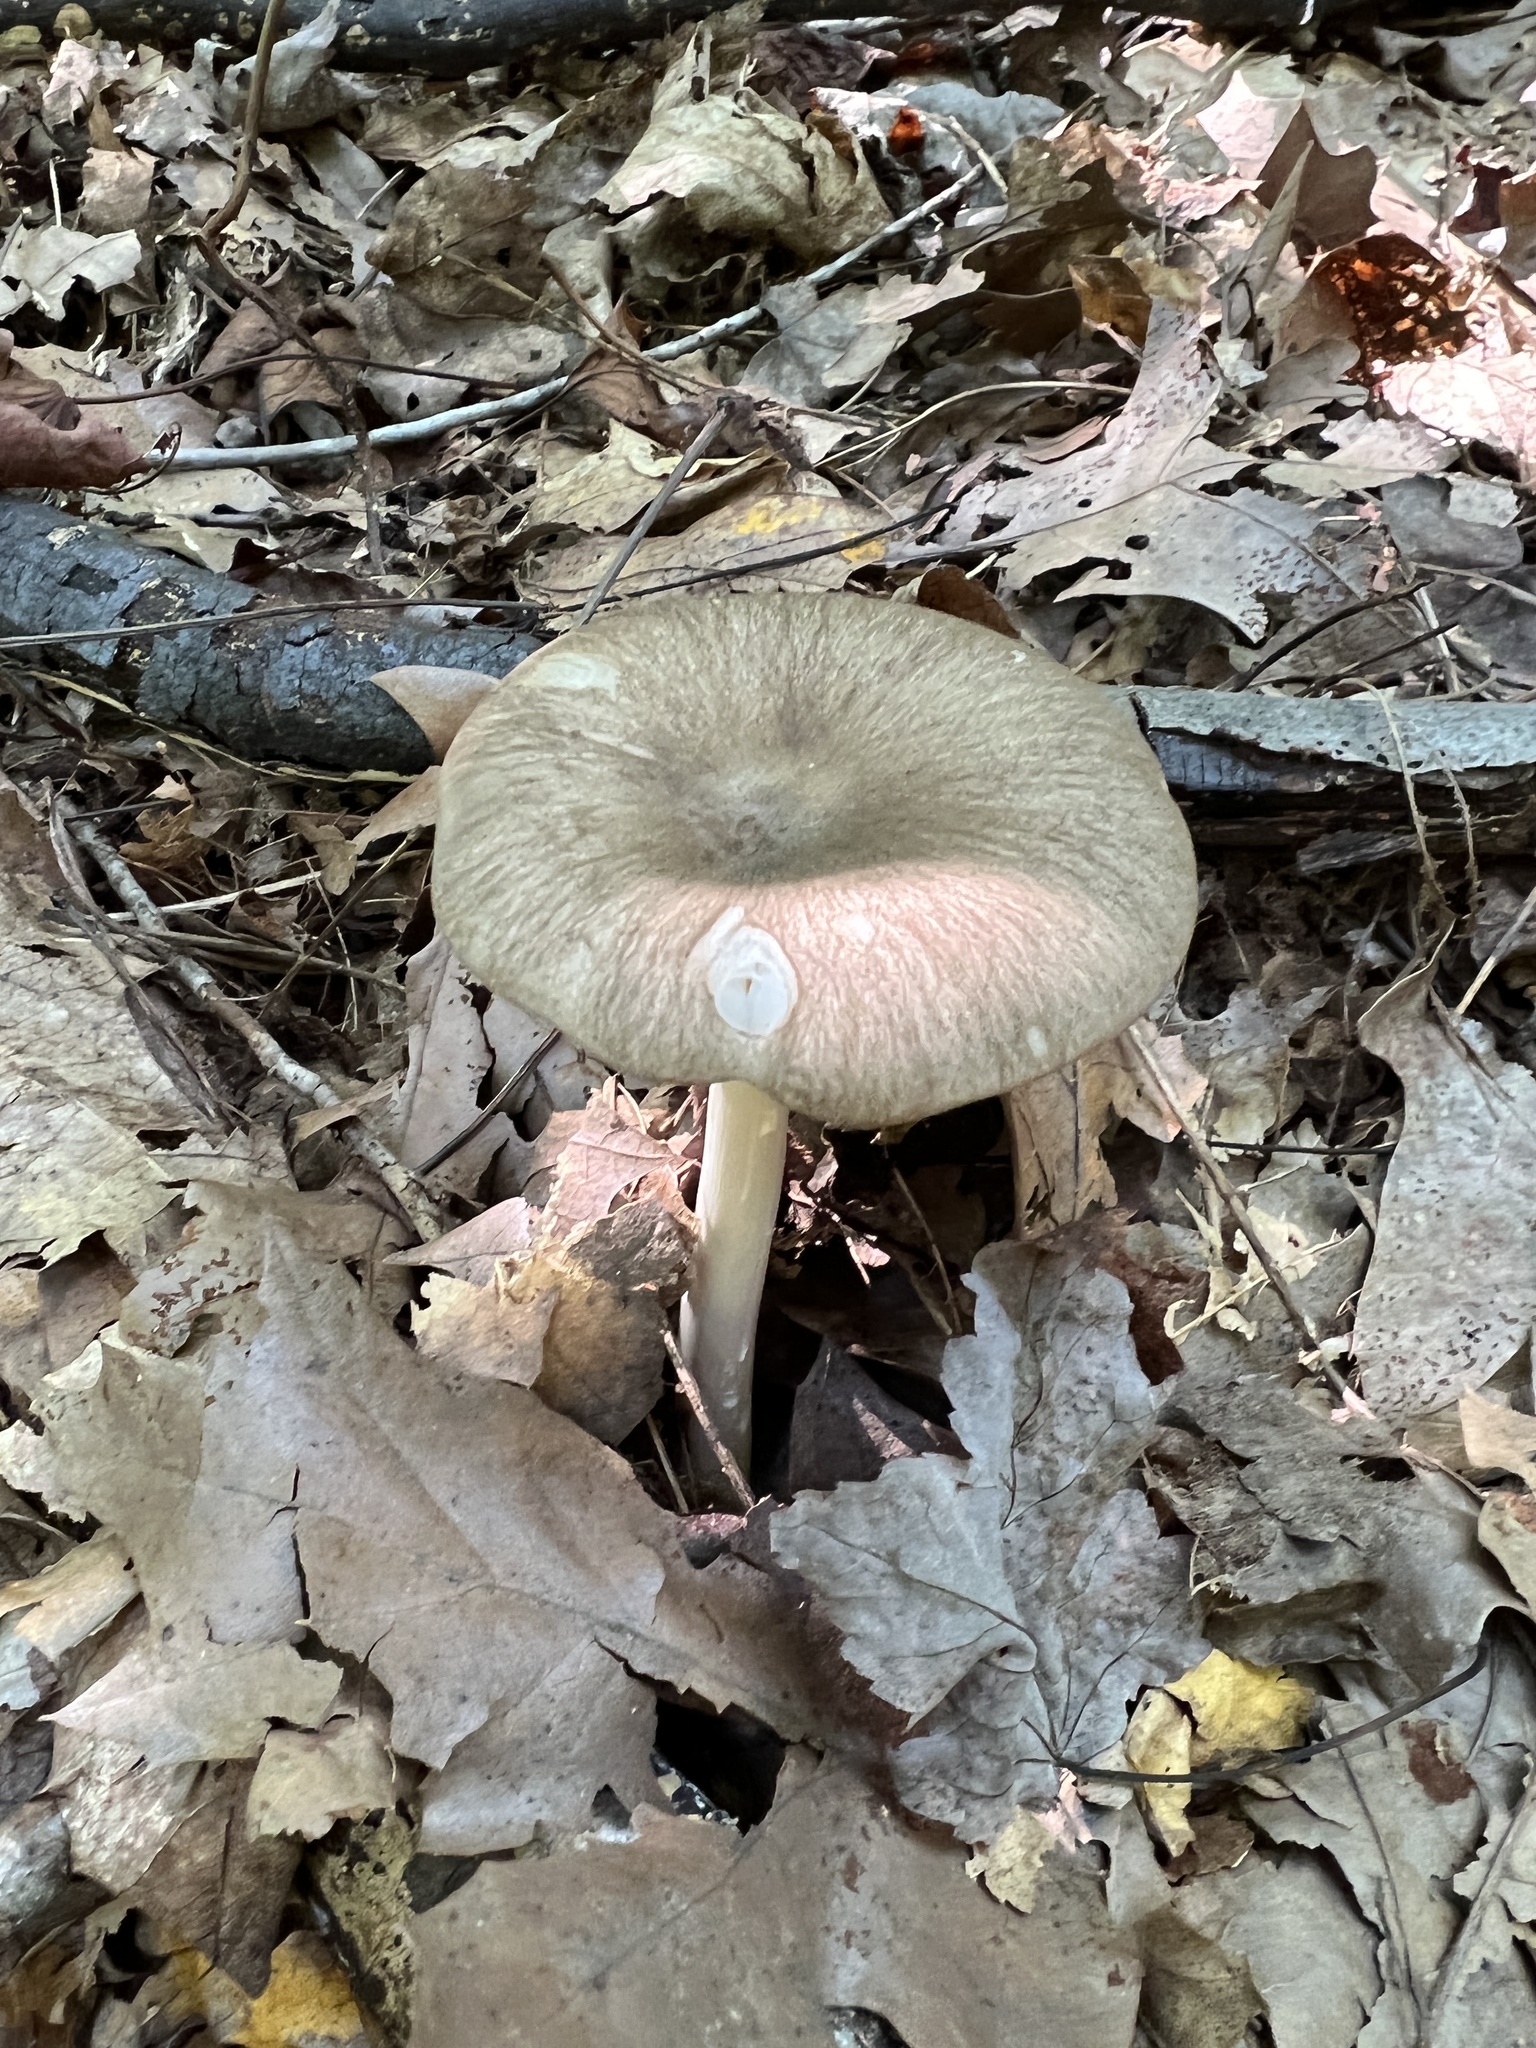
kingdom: Fungi
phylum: Basidiomycota
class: Agaricomycetes
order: Agaricales
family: Tricholomataceae
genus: Megacollybia
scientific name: Megacollybia rodmanii
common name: Eastern american platterful mushroom
